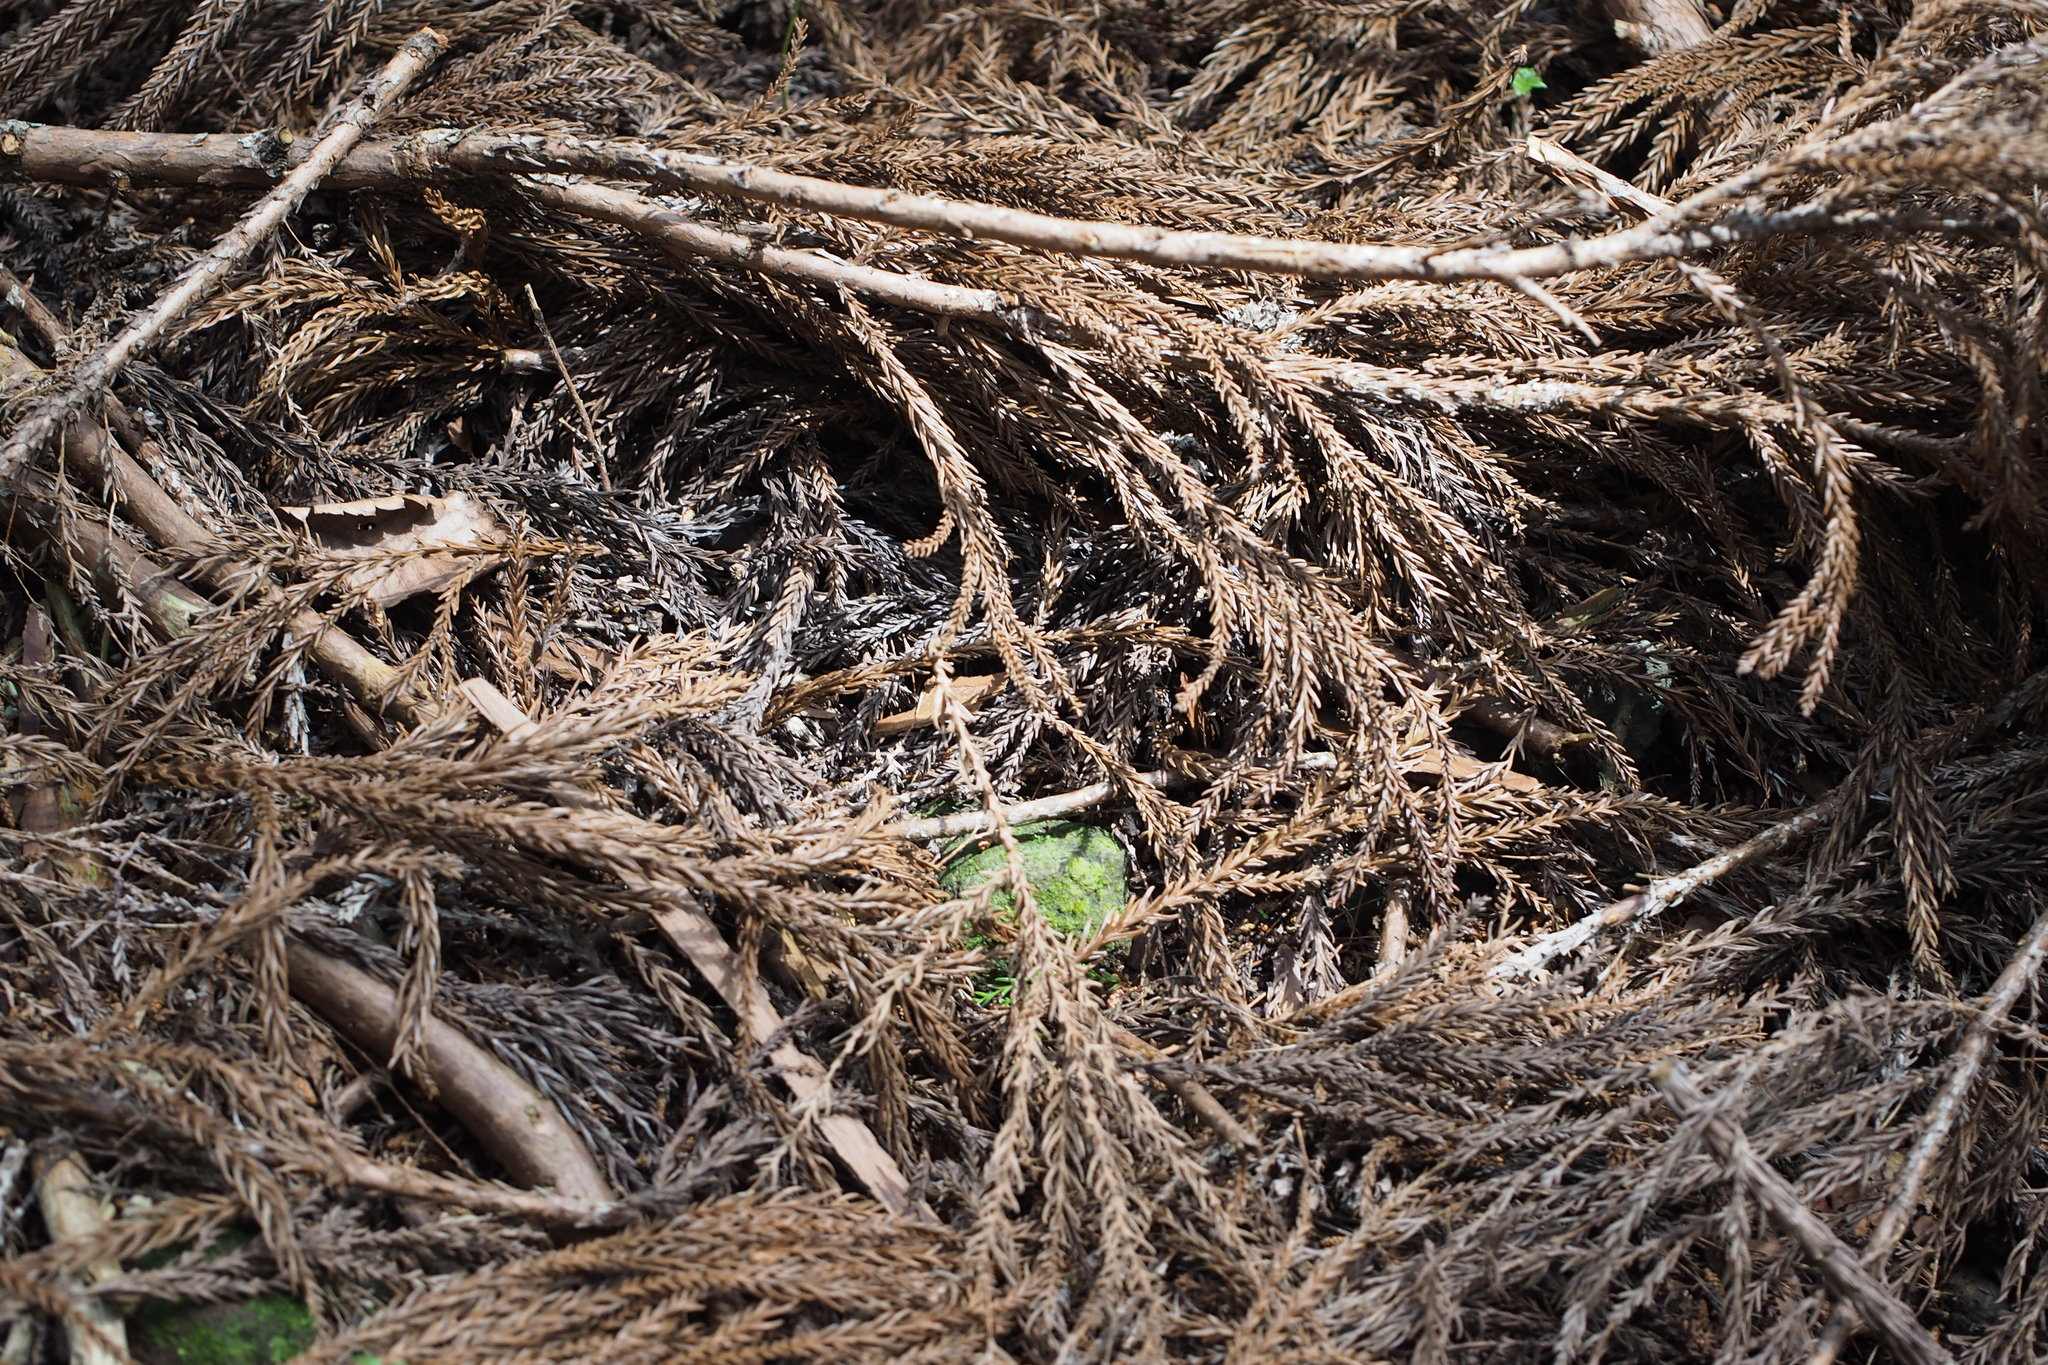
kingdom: Plantae
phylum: Tracheophyta
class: Pinopsida
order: Pinales
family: Cupressaceae
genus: Cryptomeria
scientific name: Cryptomeria japonica
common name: Japanese cedar
